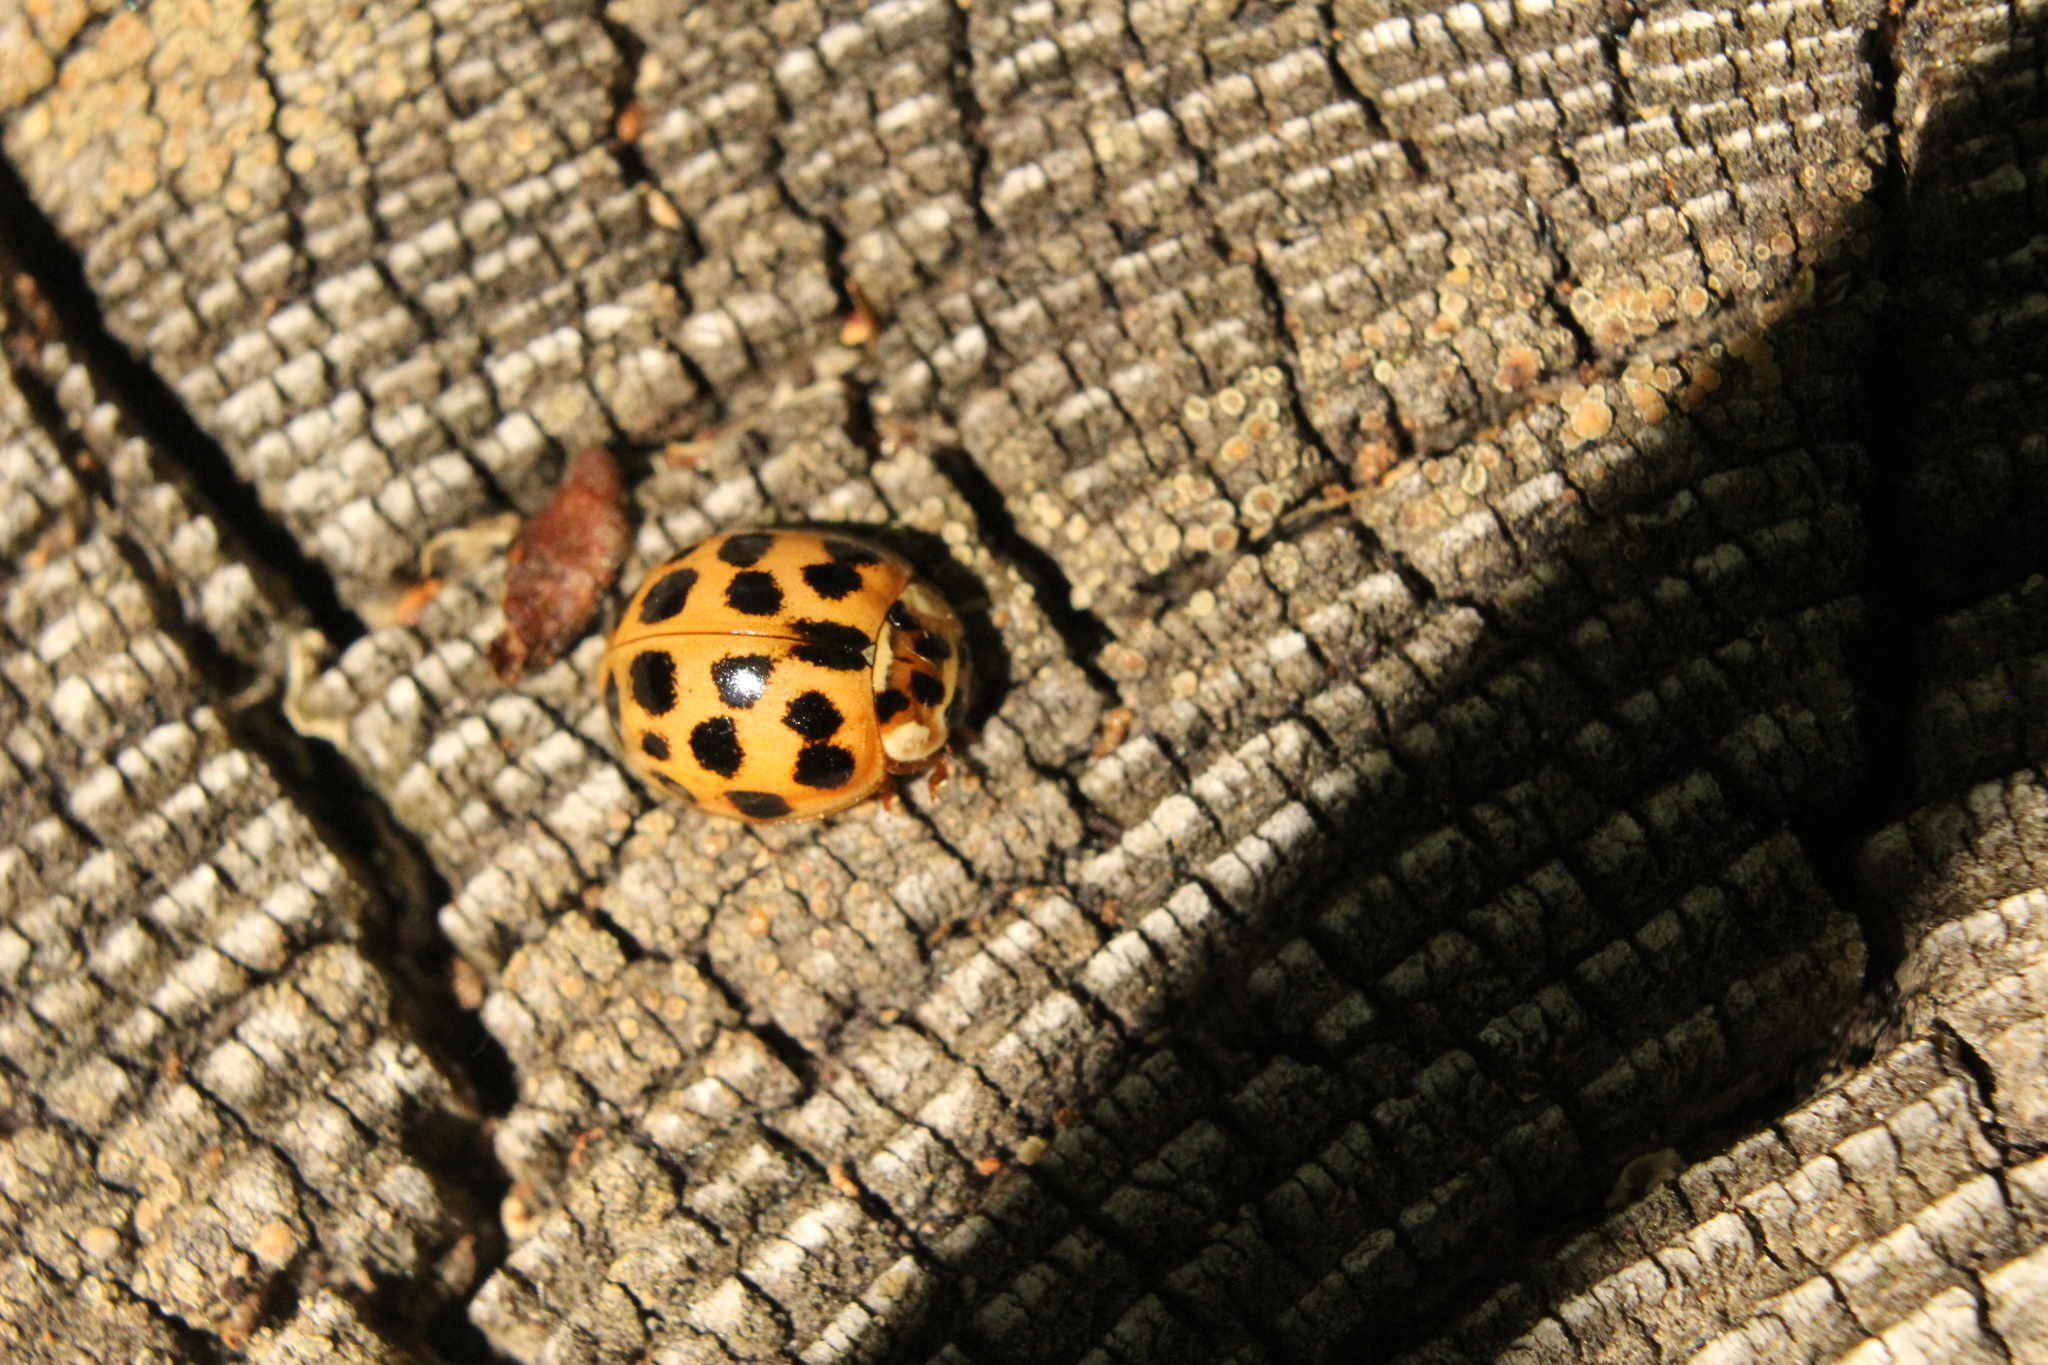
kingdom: Animalia
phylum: Arthropoda
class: Insecta
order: Coleoptera
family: Coccinellidae
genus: Harmonia
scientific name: Harmonia axyridis
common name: Harlequin ladybird
